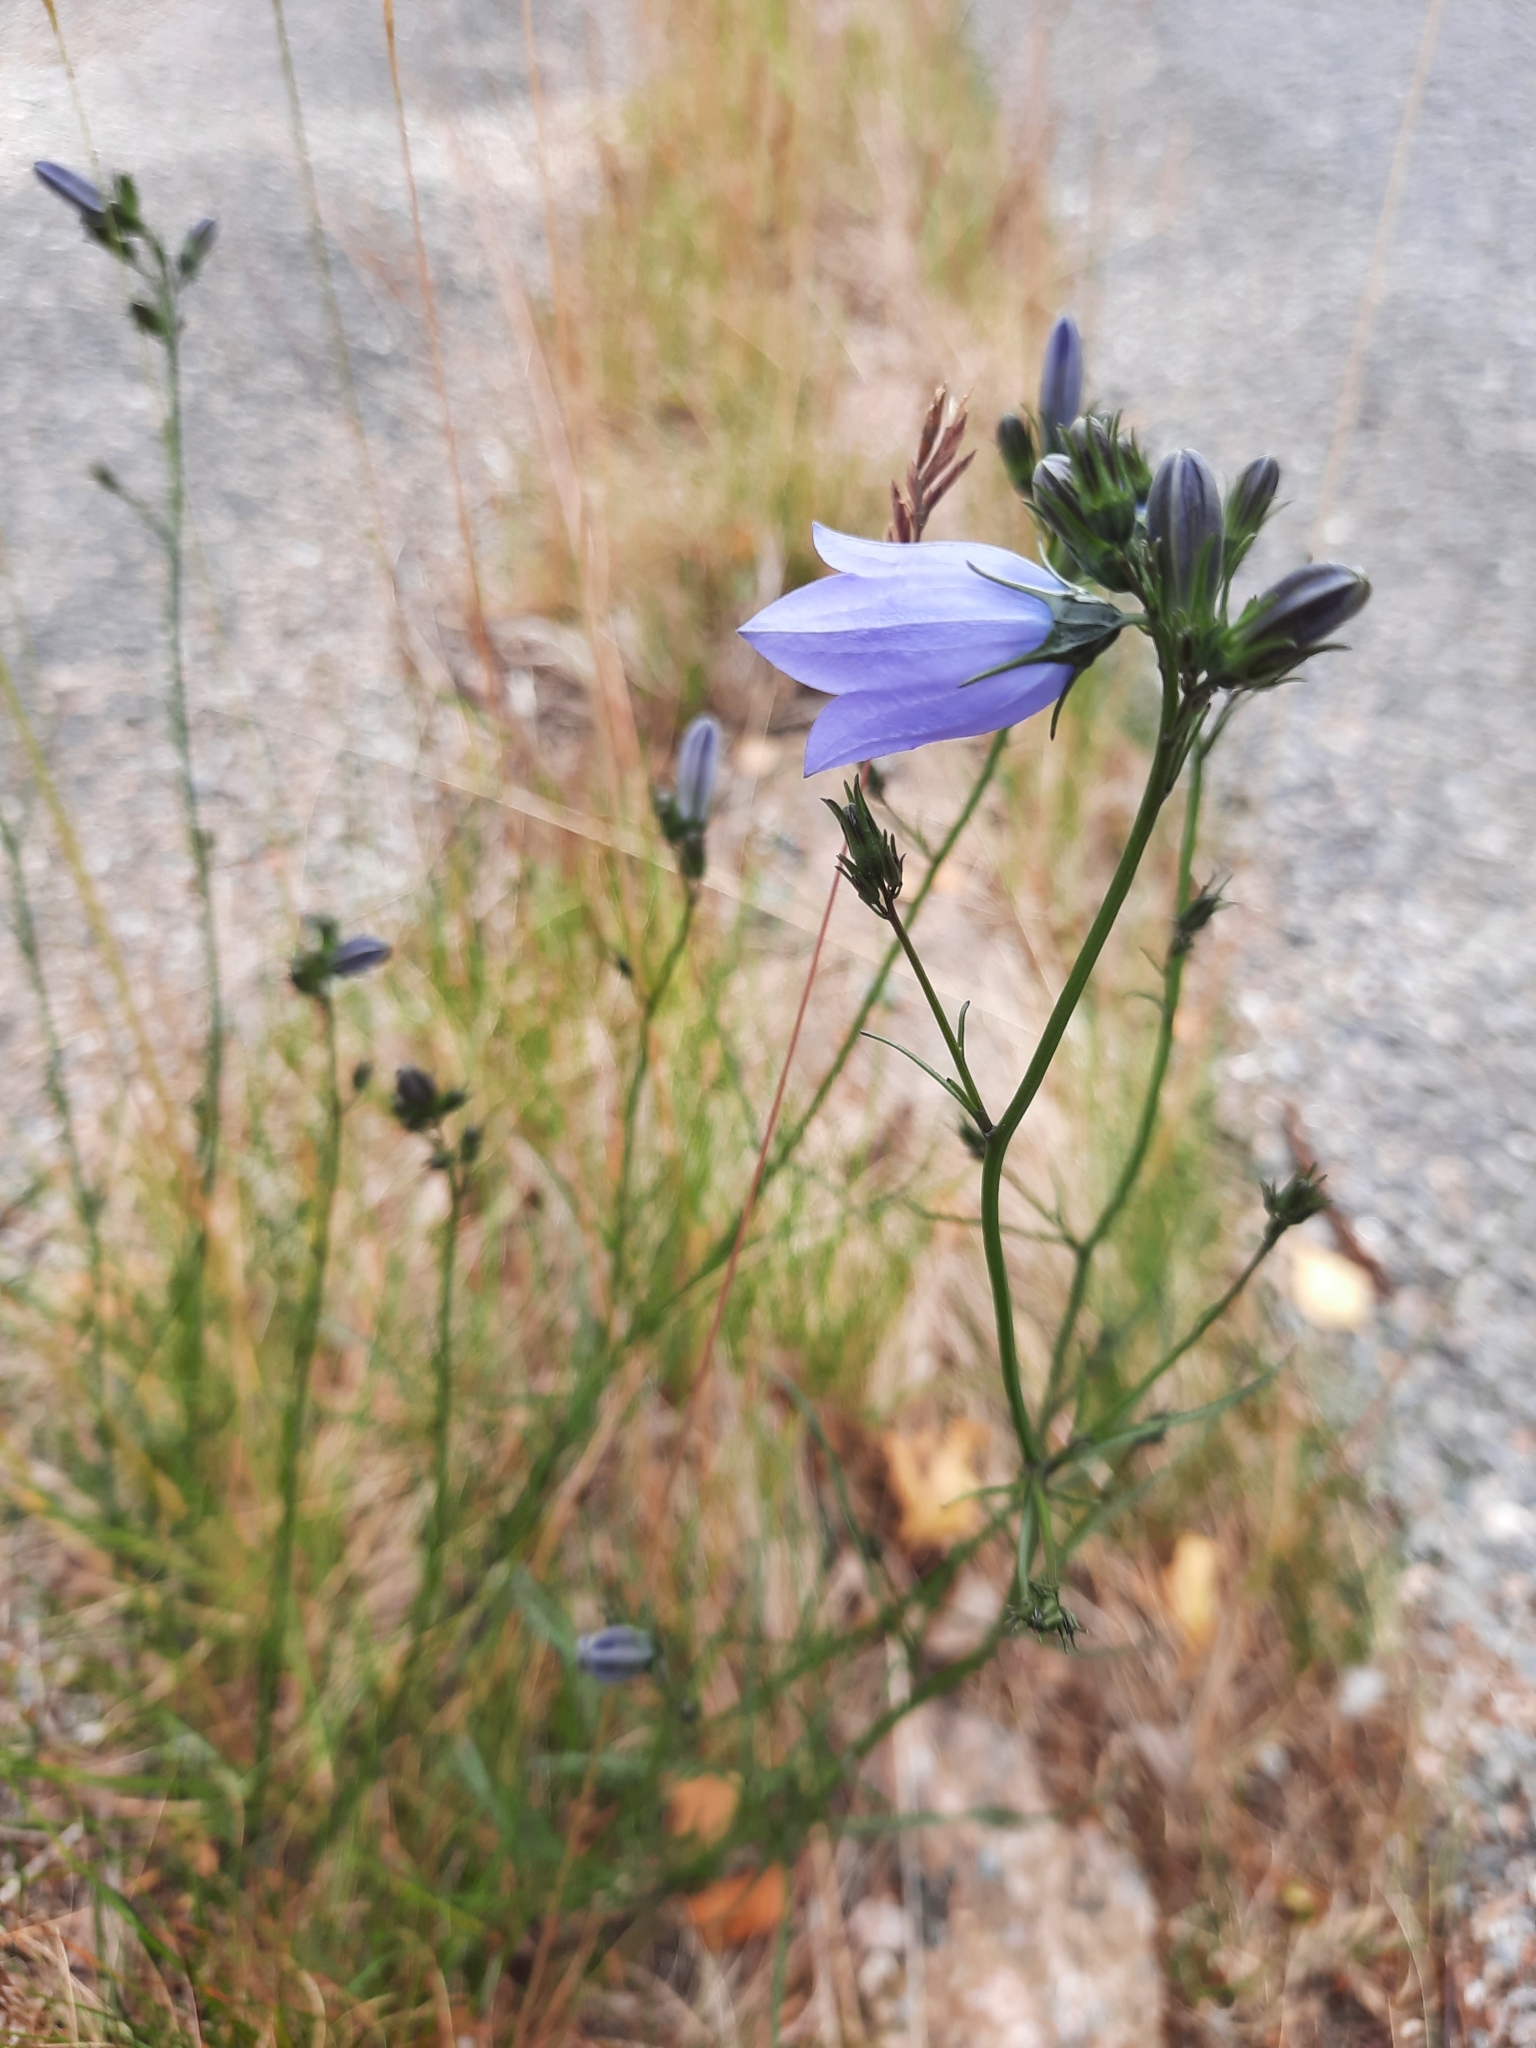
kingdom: Plantae
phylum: Tracheophyta
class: Magnoliopsida
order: Asterales
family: Campanulaceae
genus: Campanula
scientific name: Campanula rotundifolia
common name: Harebell
